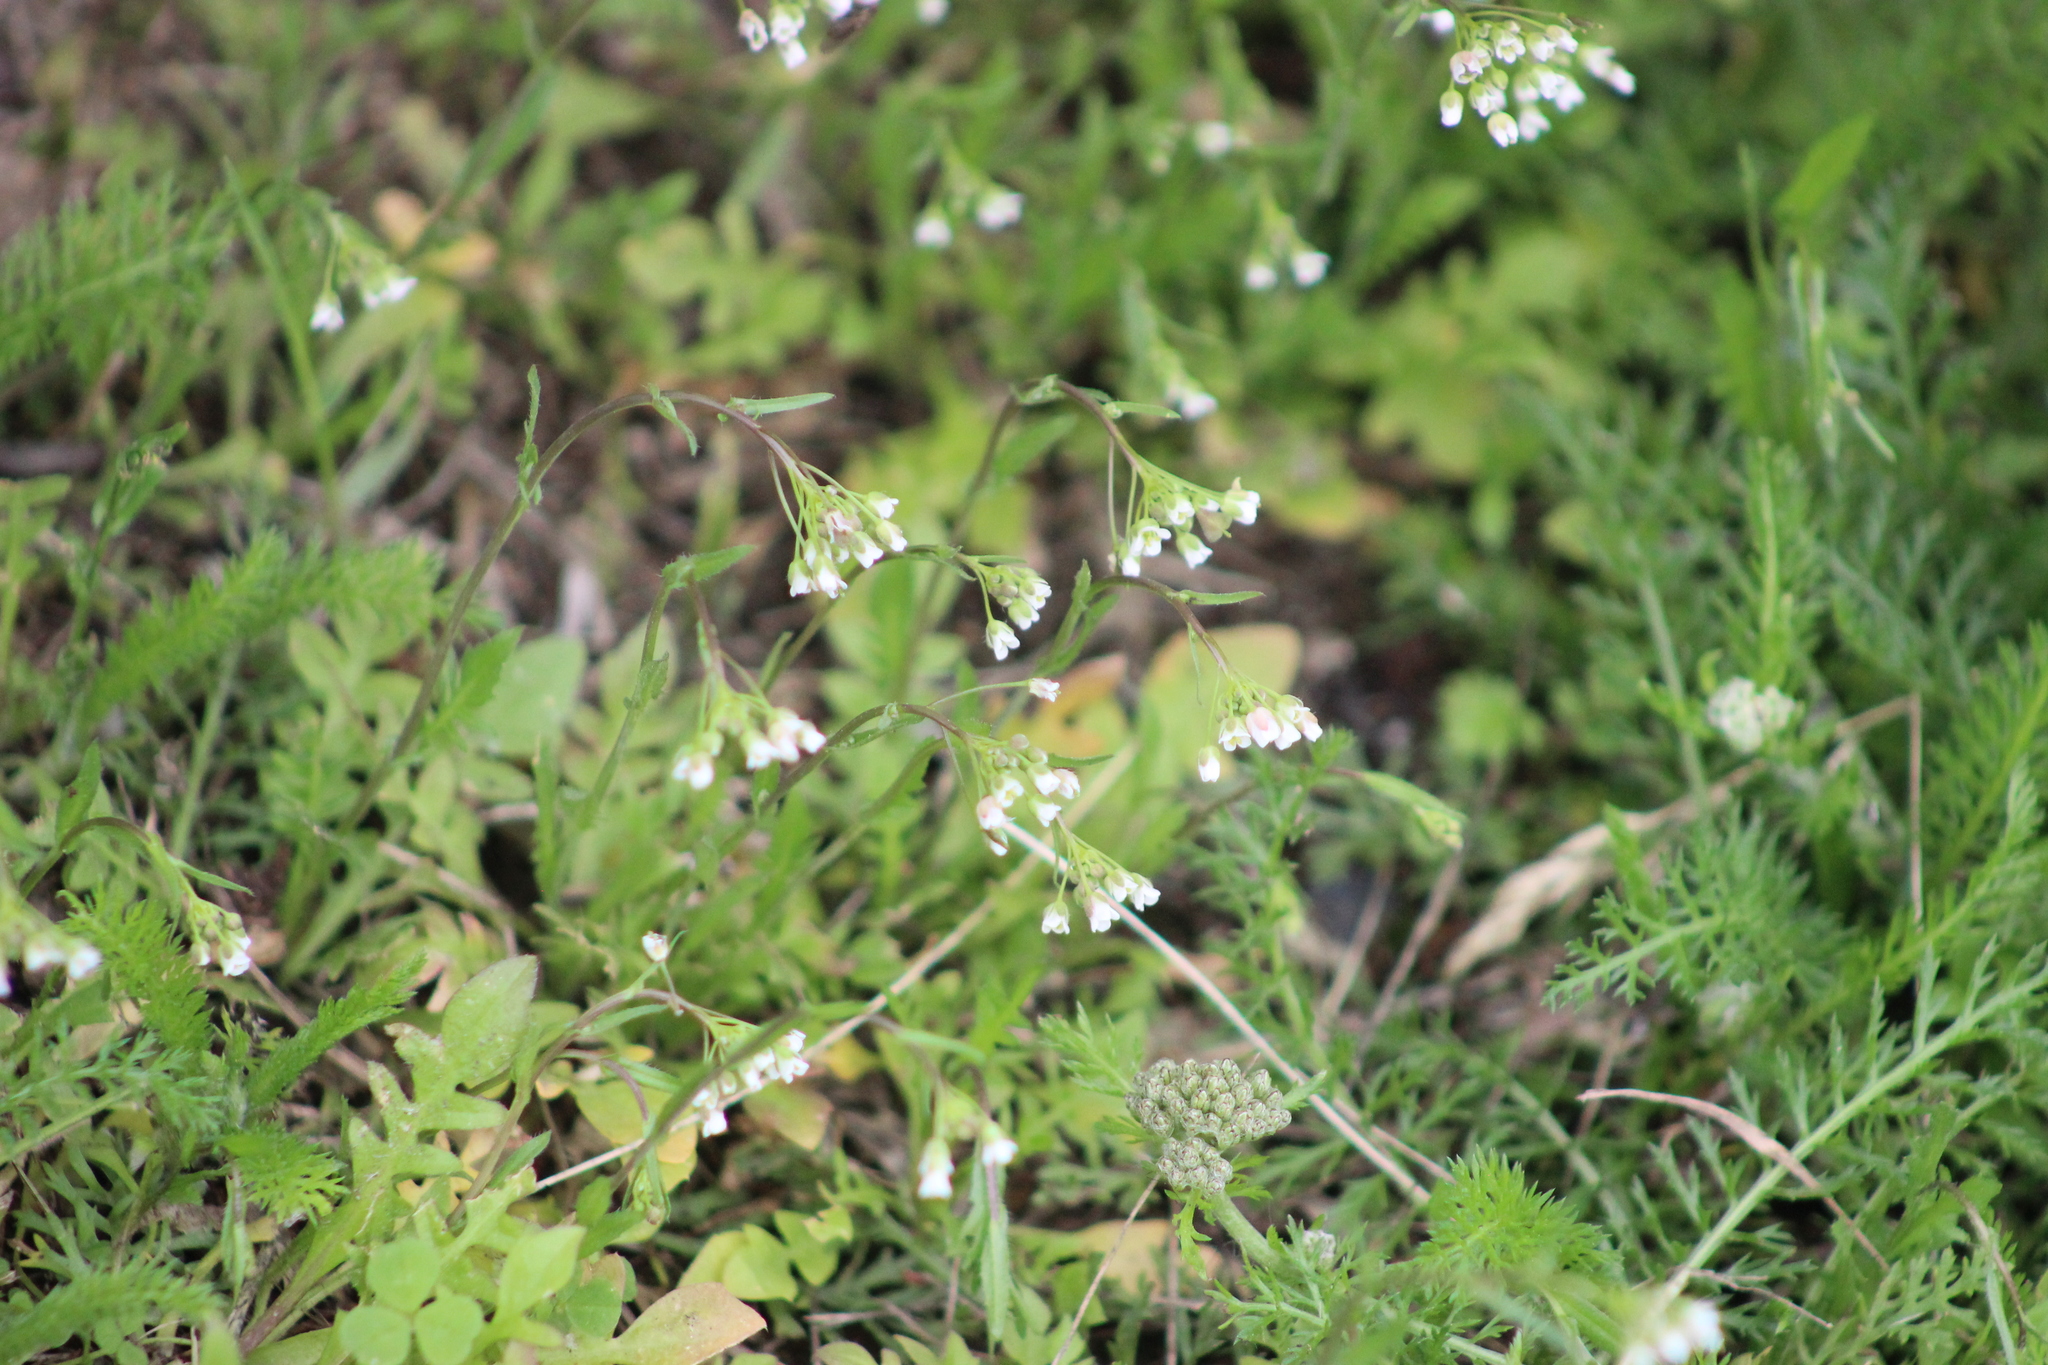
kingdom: Plantae
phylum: Tracheophyta
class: Magnoliopsida
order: Brassicales
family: Brassicaceae
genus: Capsella
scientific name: Capsella bursa-pastoris
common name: Shepherd's purse
